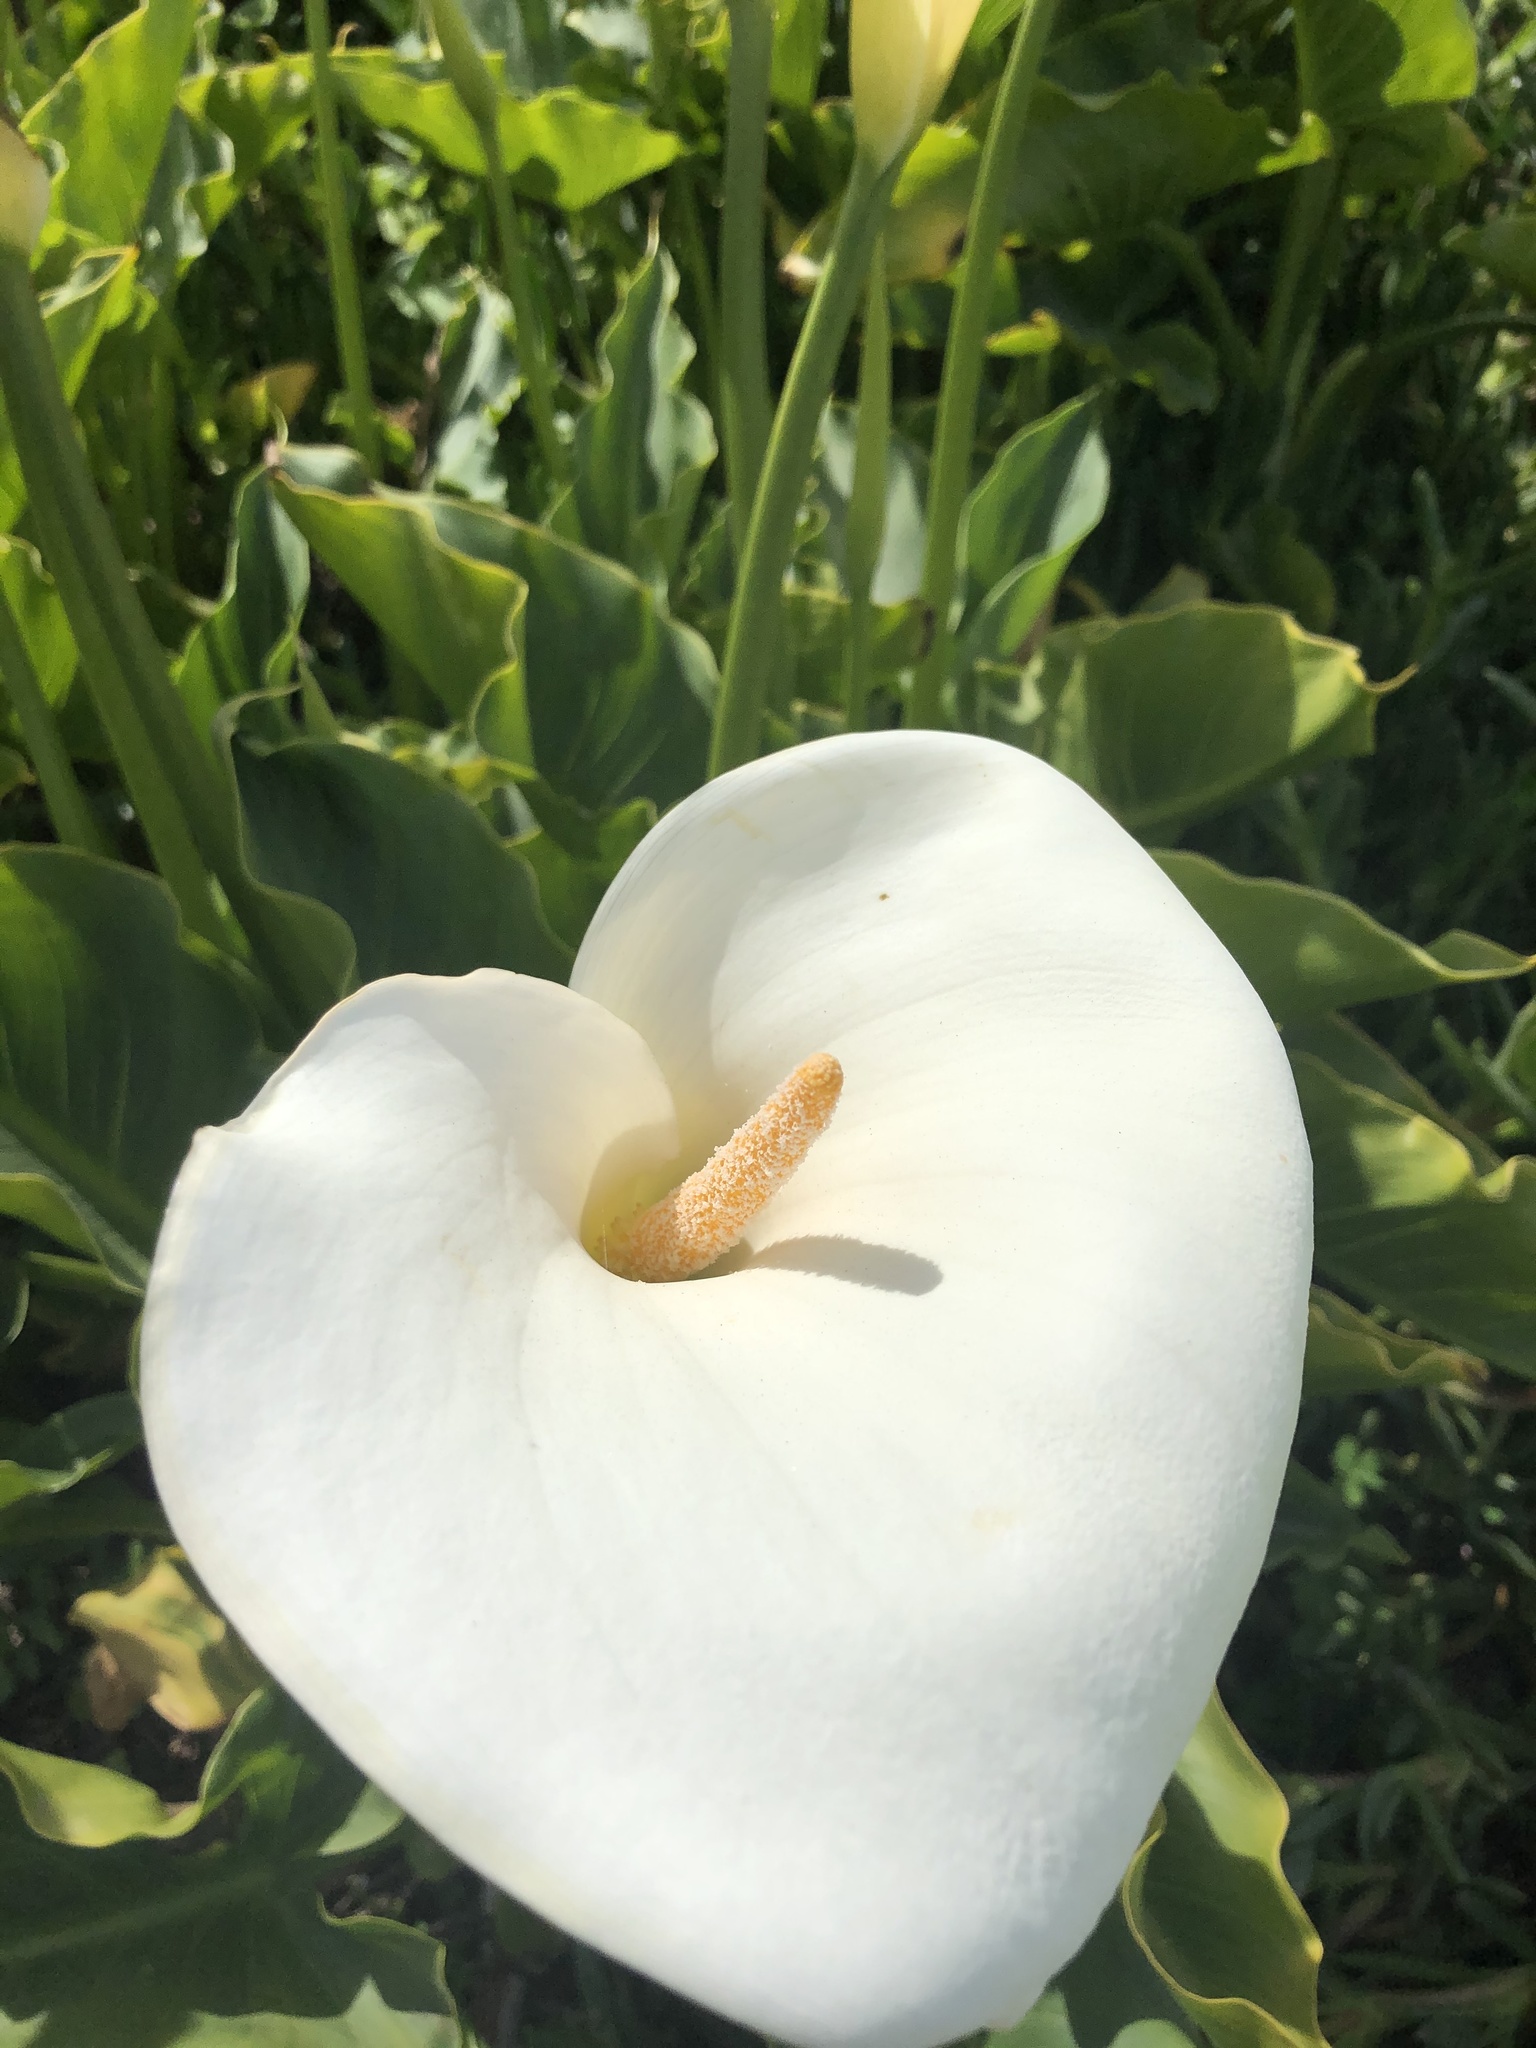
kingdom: Plantae
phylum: Tracheophyta
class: Liliopsida
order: Alismatales
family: Araceae
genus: Zantedeschia
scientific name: Zantedeschia aethiopica
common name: Altar-lily
